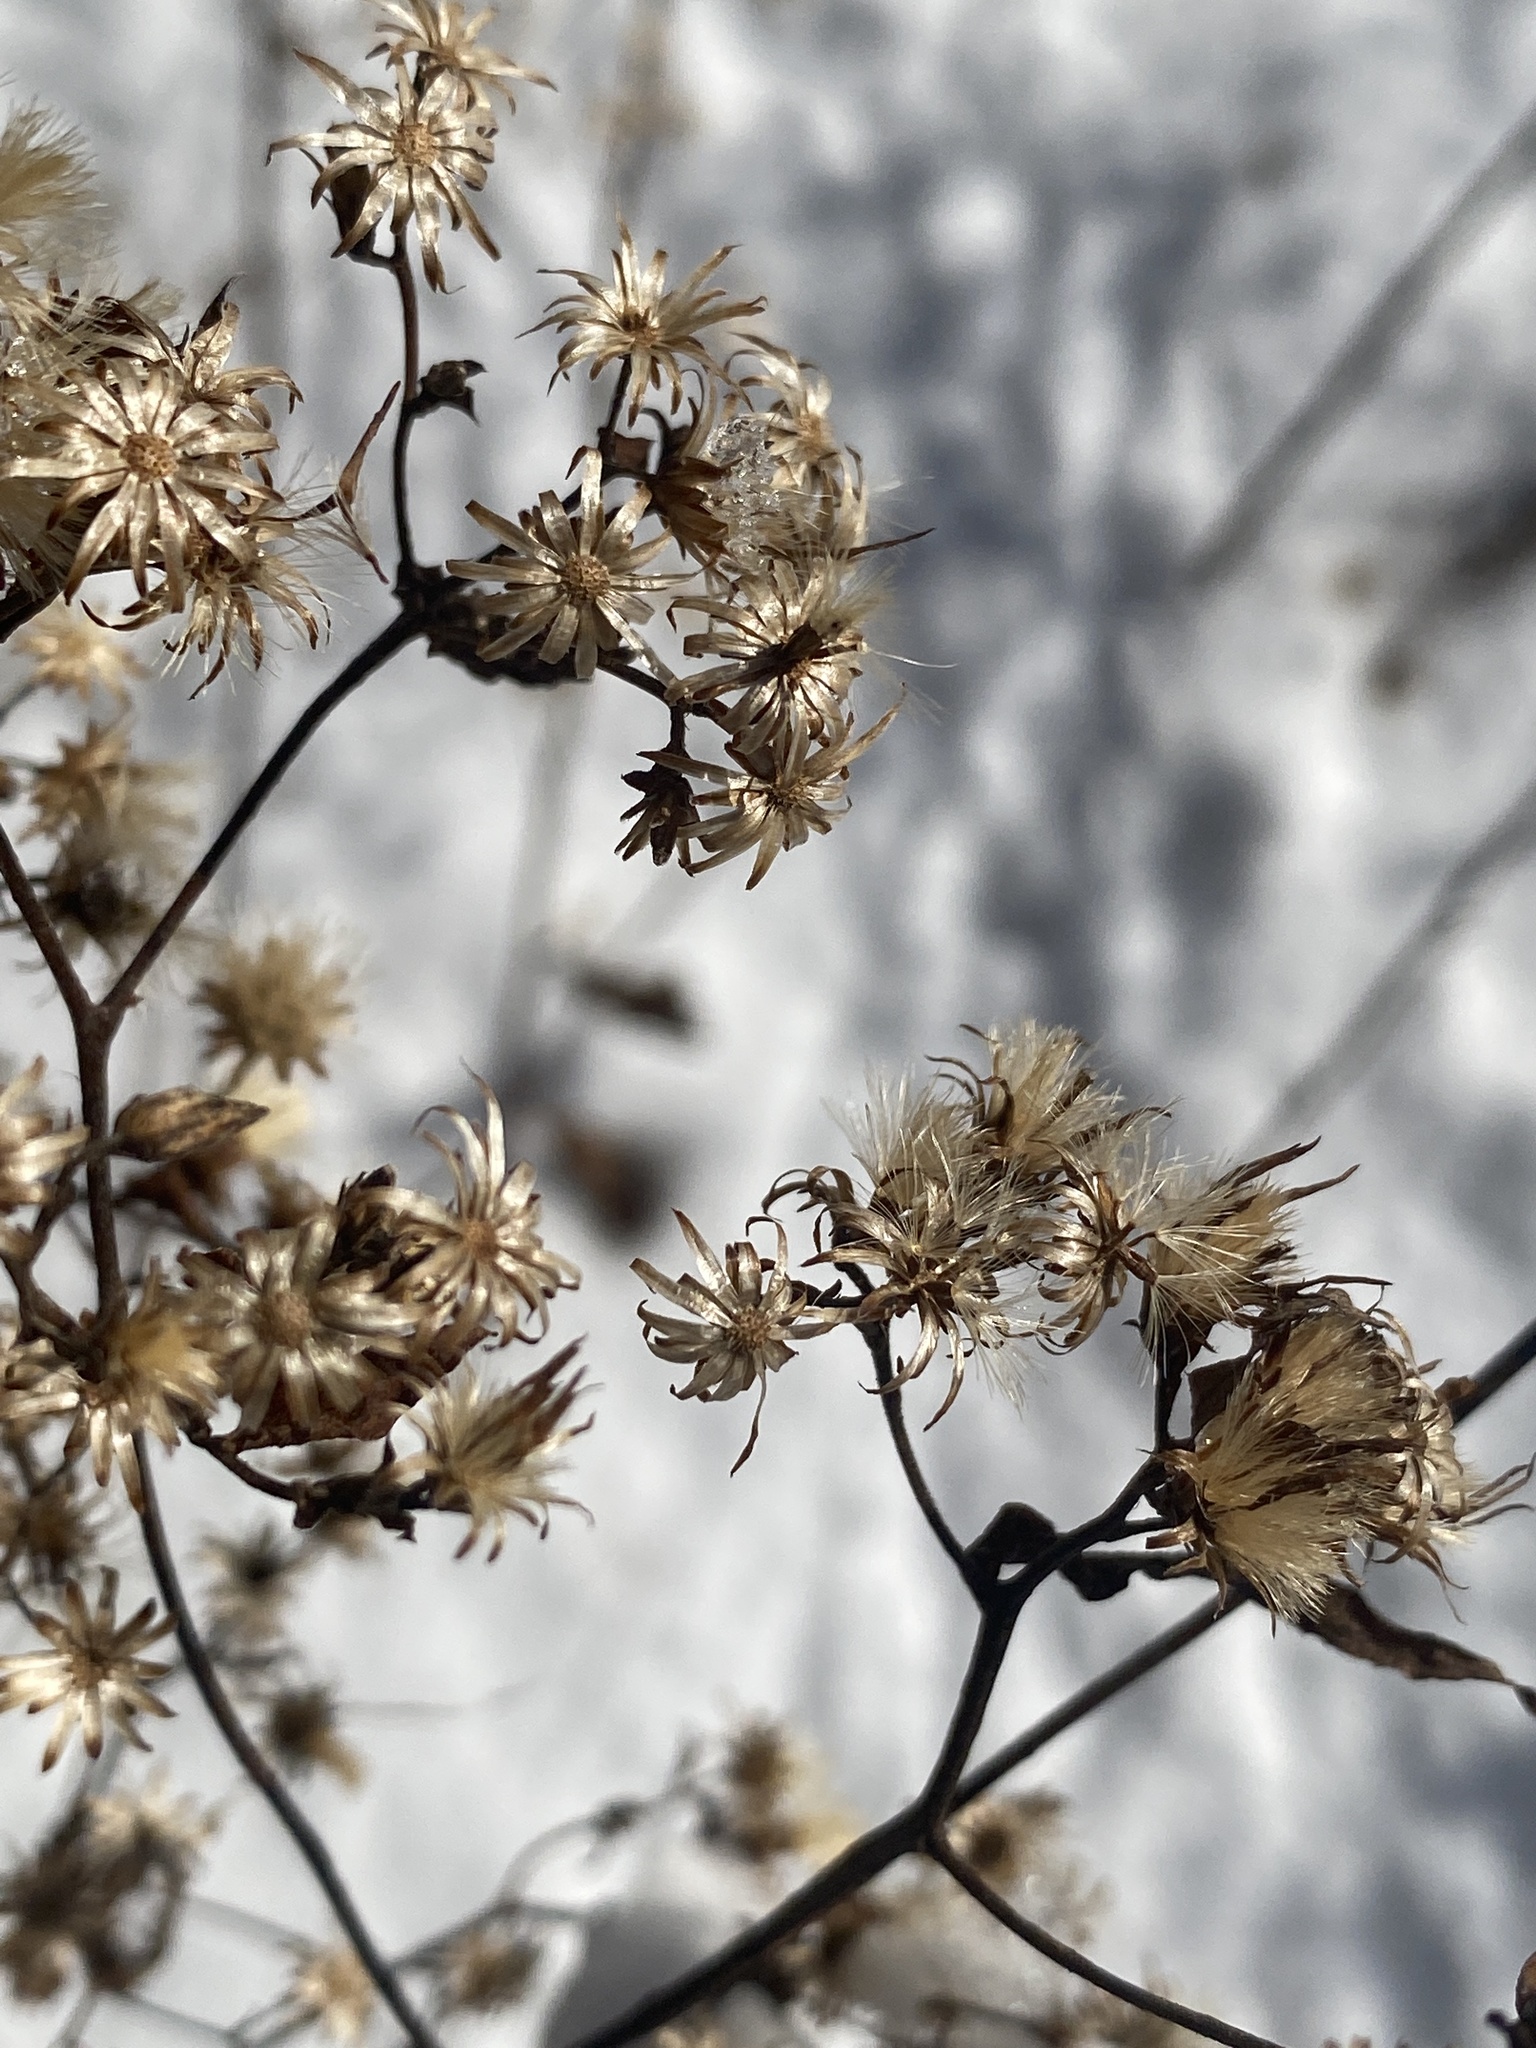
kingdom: Plantae
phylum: Tracheophyta
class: Magnoliopsida
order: Asterales
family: Asteraceae
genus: Eurybia
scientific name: Eurybia divaricata
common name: White wood aster
